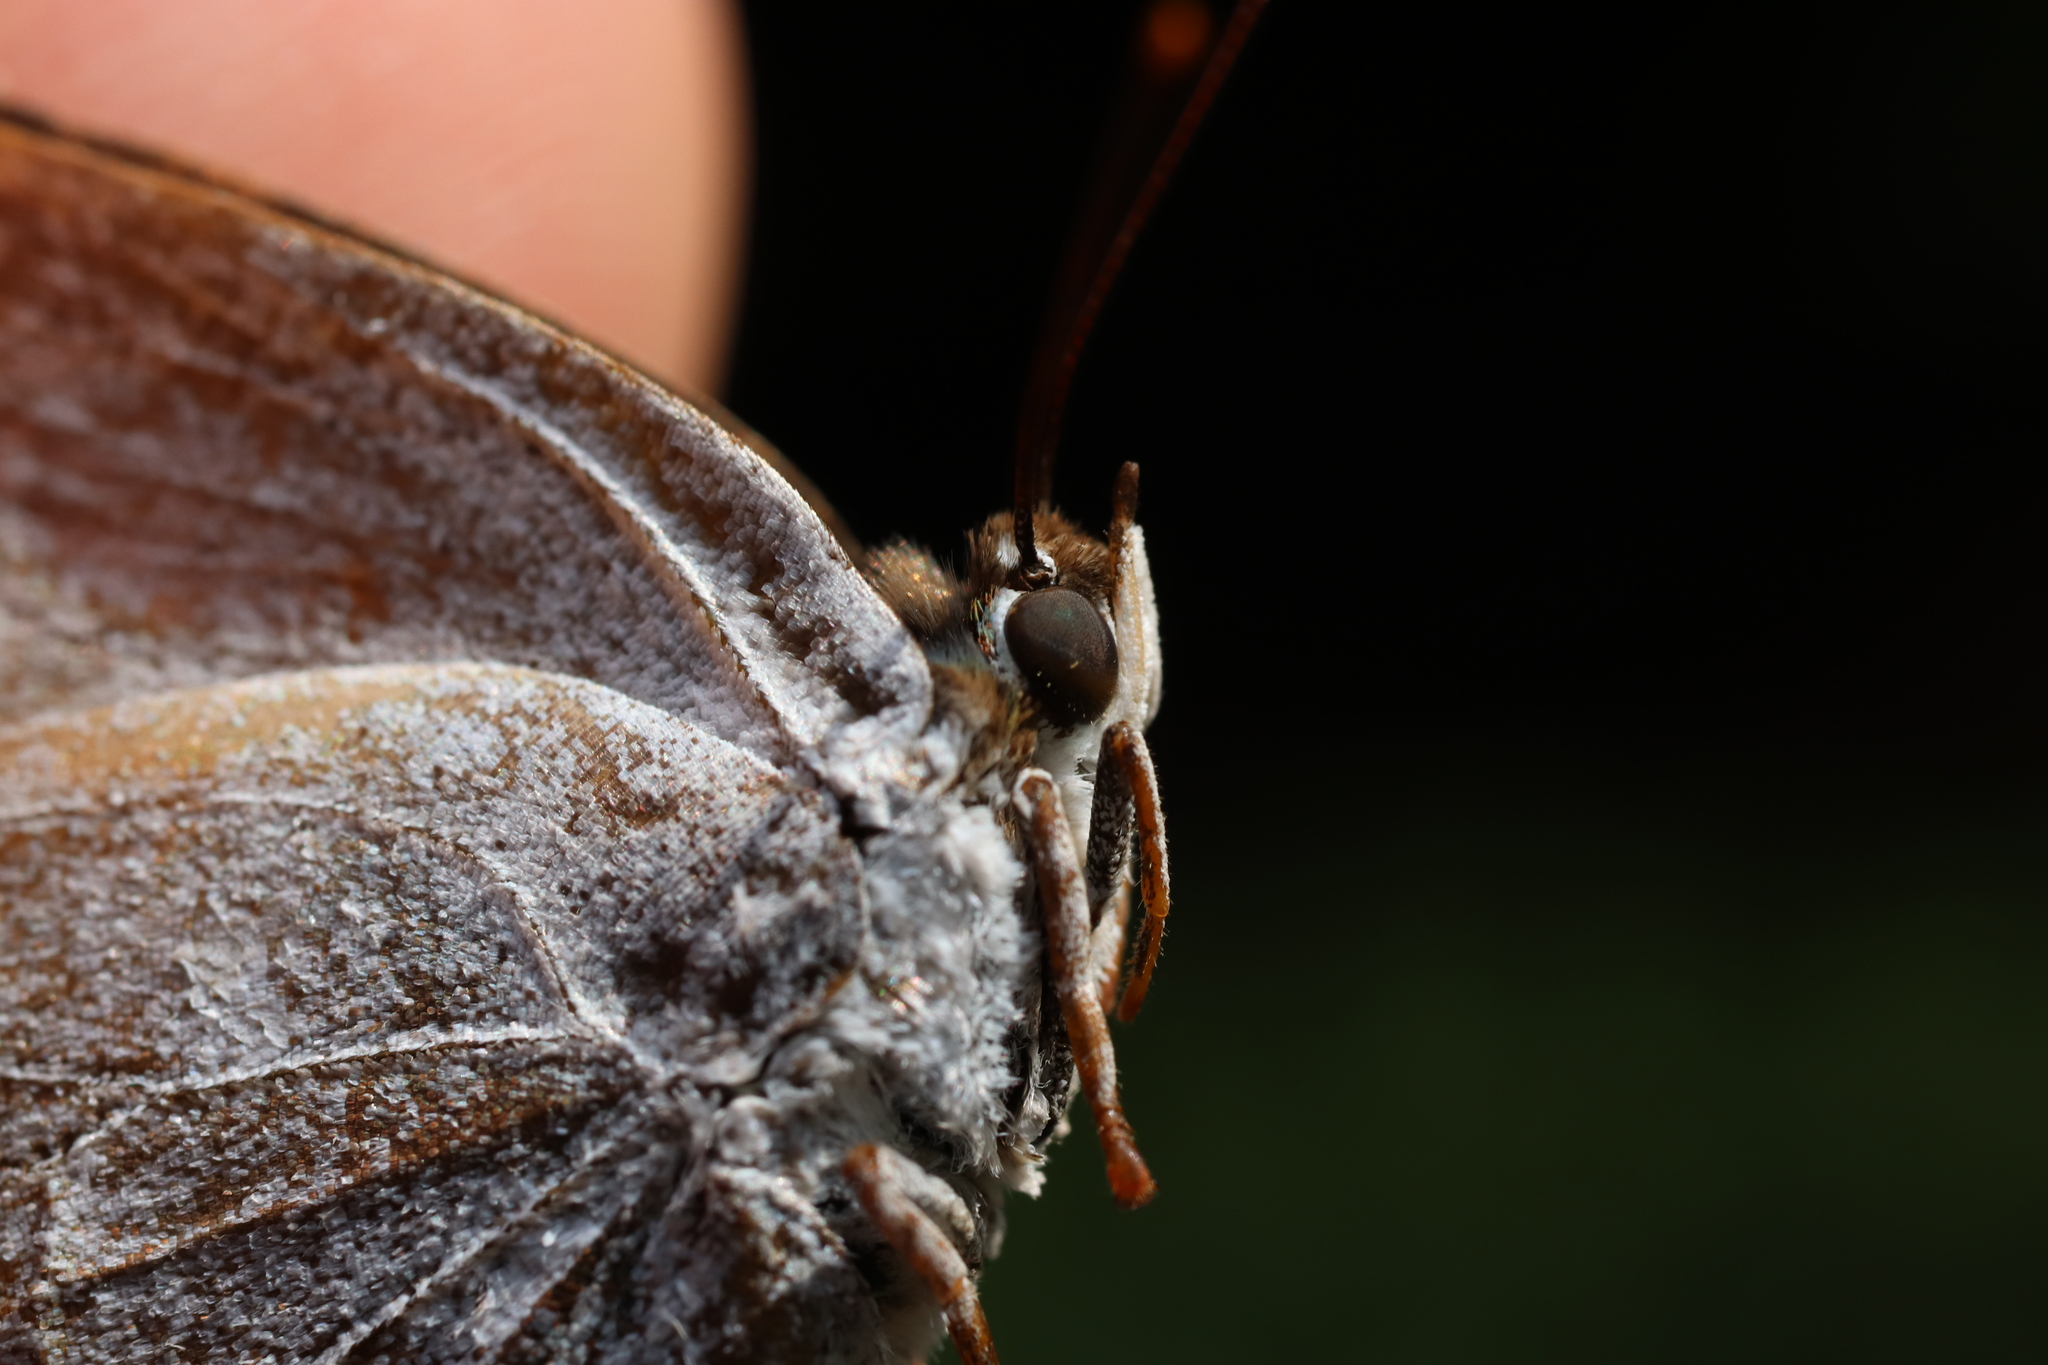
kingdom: Animalia
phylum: Arthropoda
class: Insecta
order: Lepidoptera
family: Lycaenidae
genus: Curetis
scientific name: Curetis acuta
